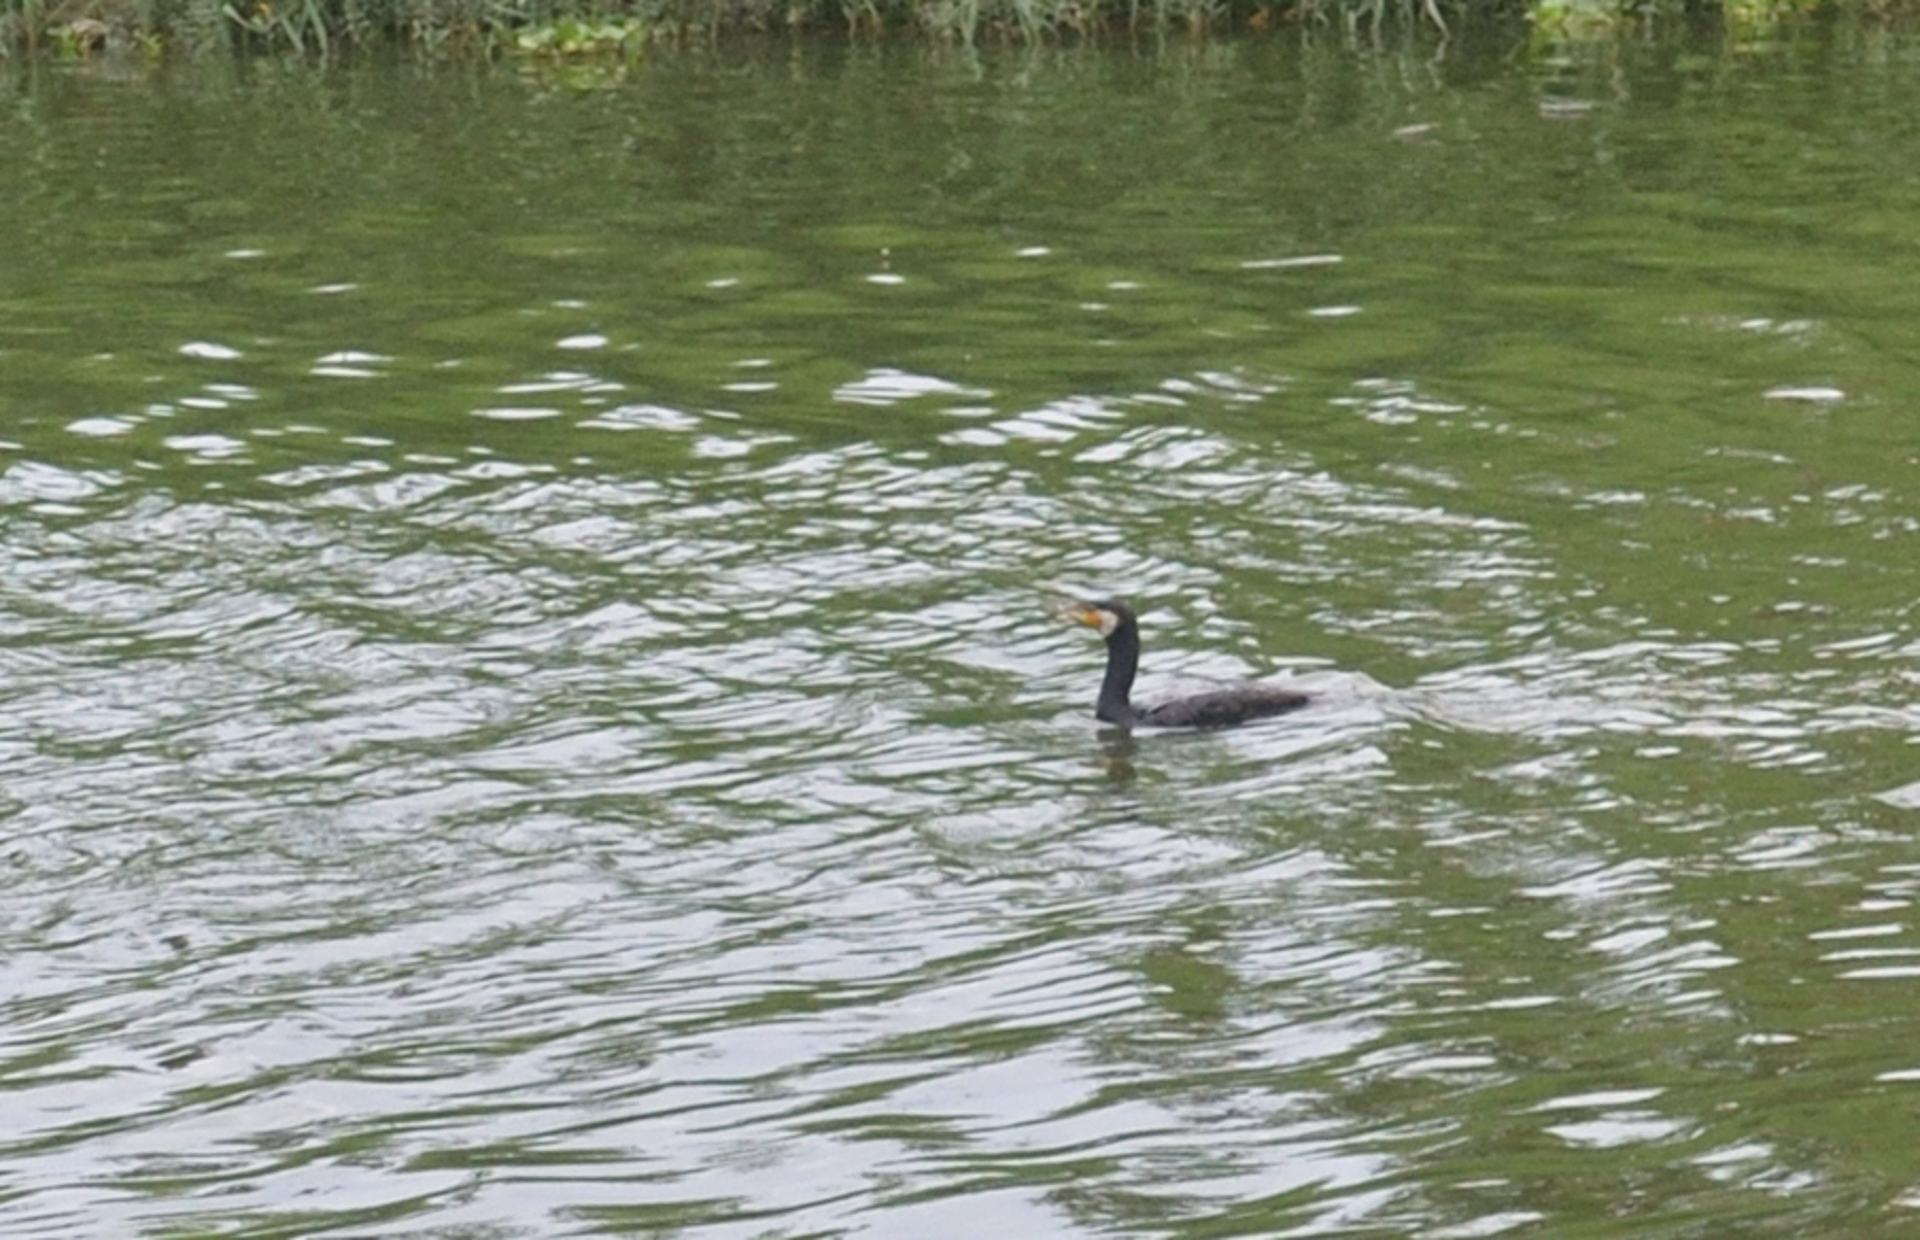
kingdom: Animalia
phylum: Chordata
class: Aves
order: Suliformes
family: Phalacrocoracidae
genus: Phalacrocorax
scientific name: Phalacrocorax carbo
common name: Great cormorant
